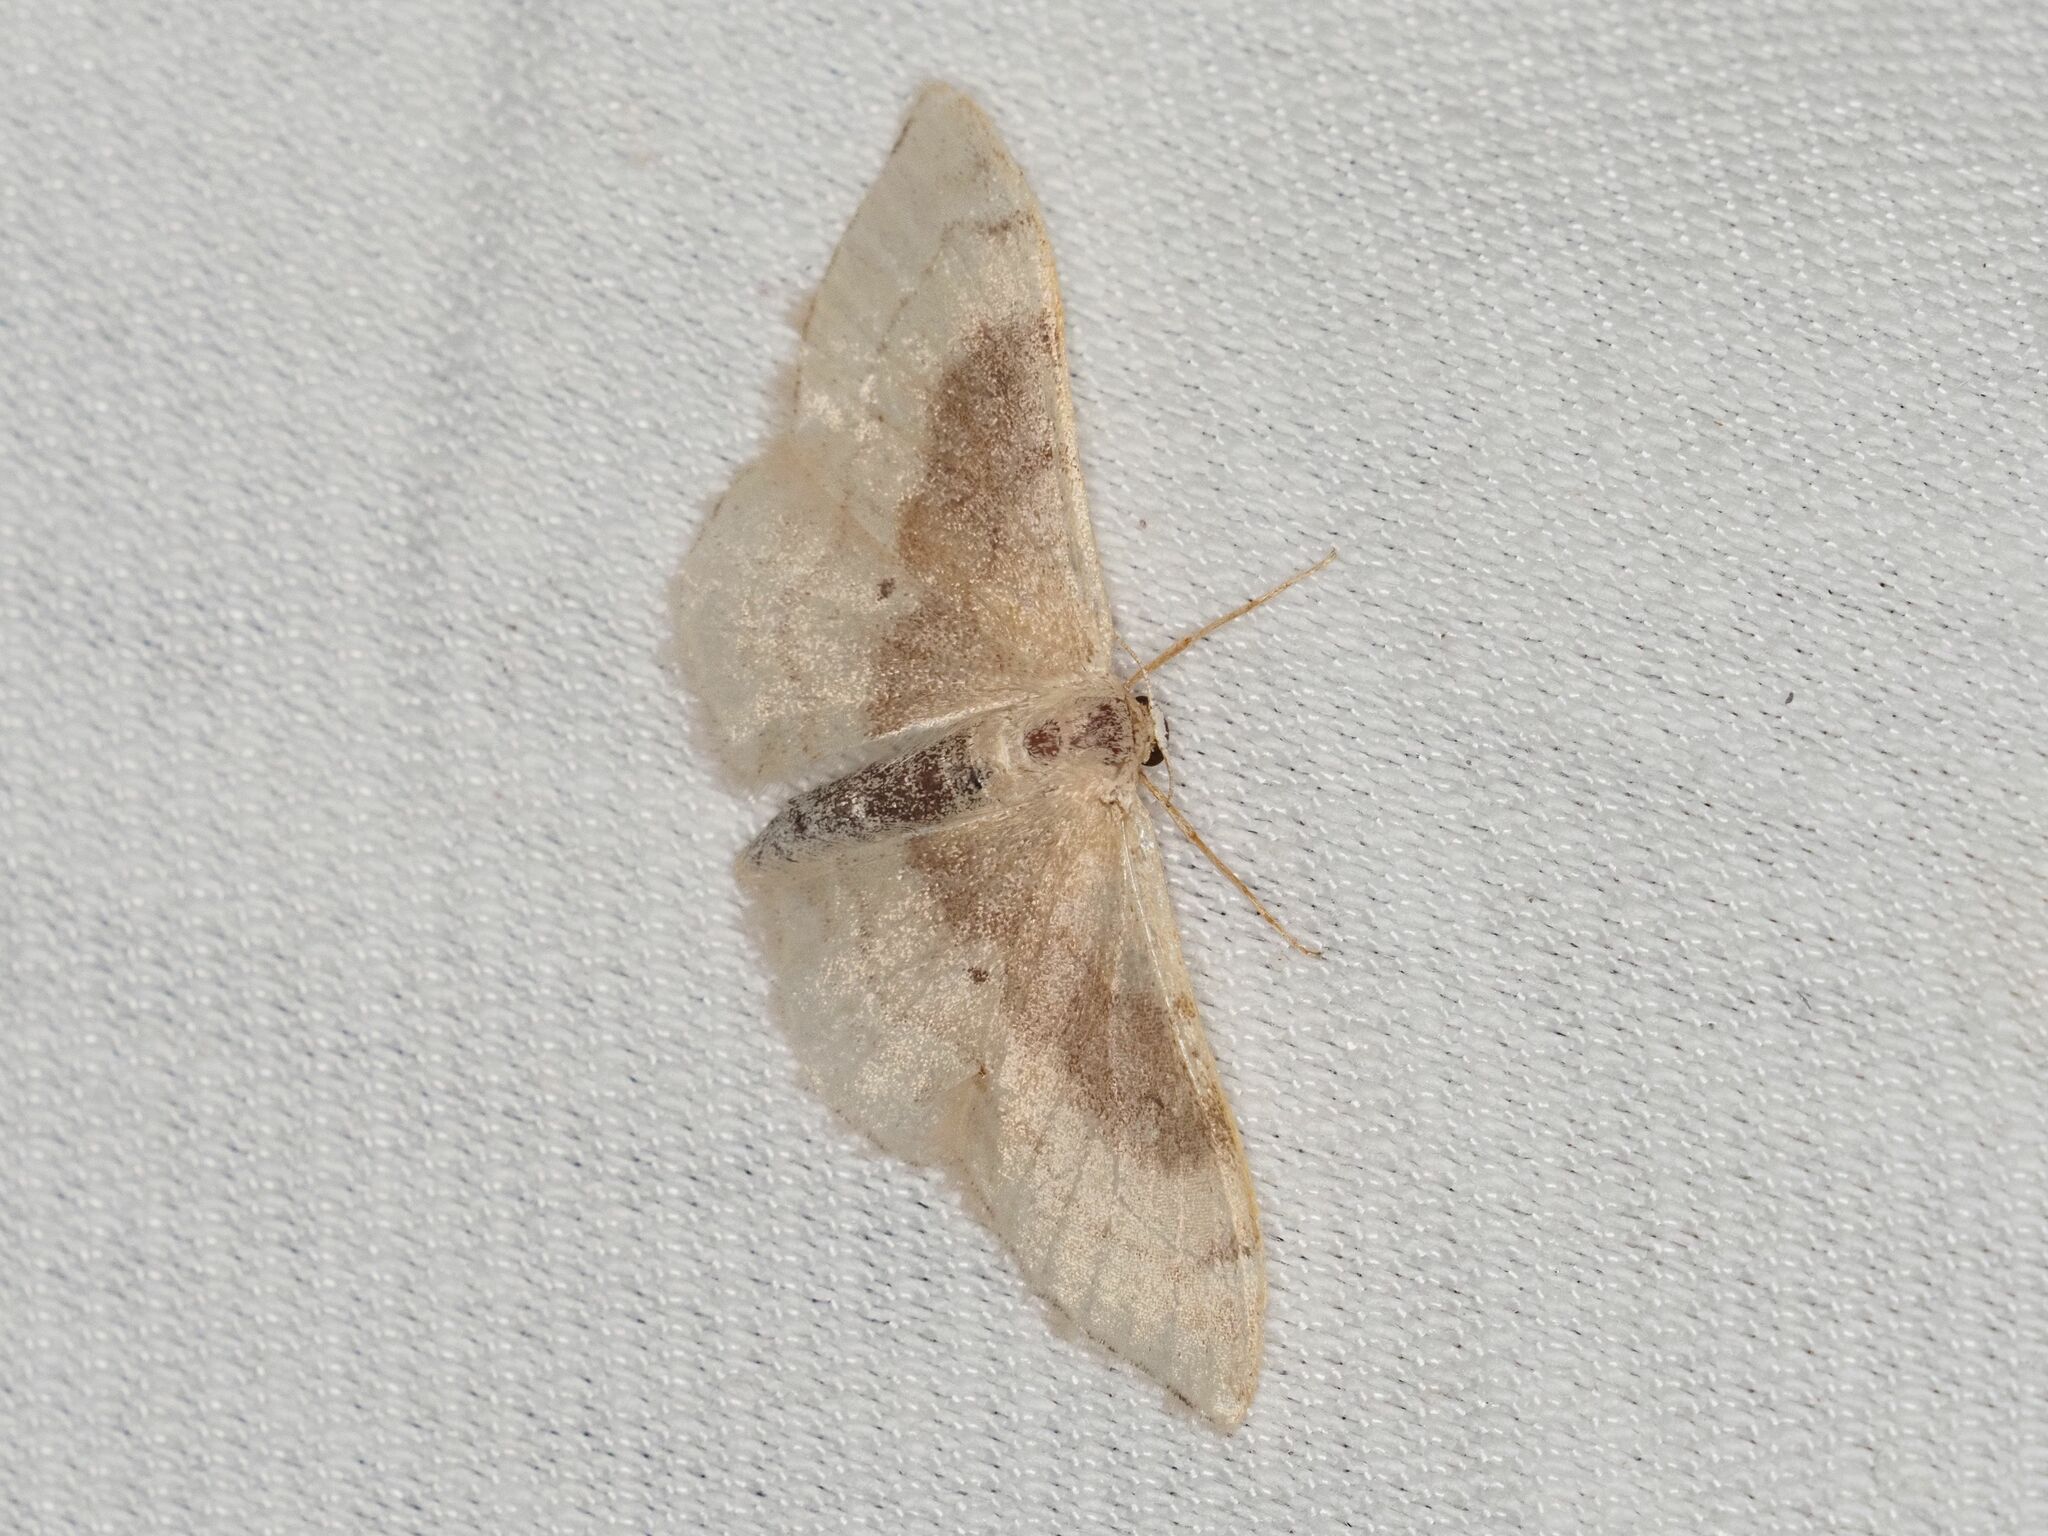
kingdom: Animalia
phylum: Arthropoda
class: Insecta
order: Lepidoptera
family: Geometridae
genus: Idaea
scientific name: Idaea degeneraria
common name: Portland ribbon wave
